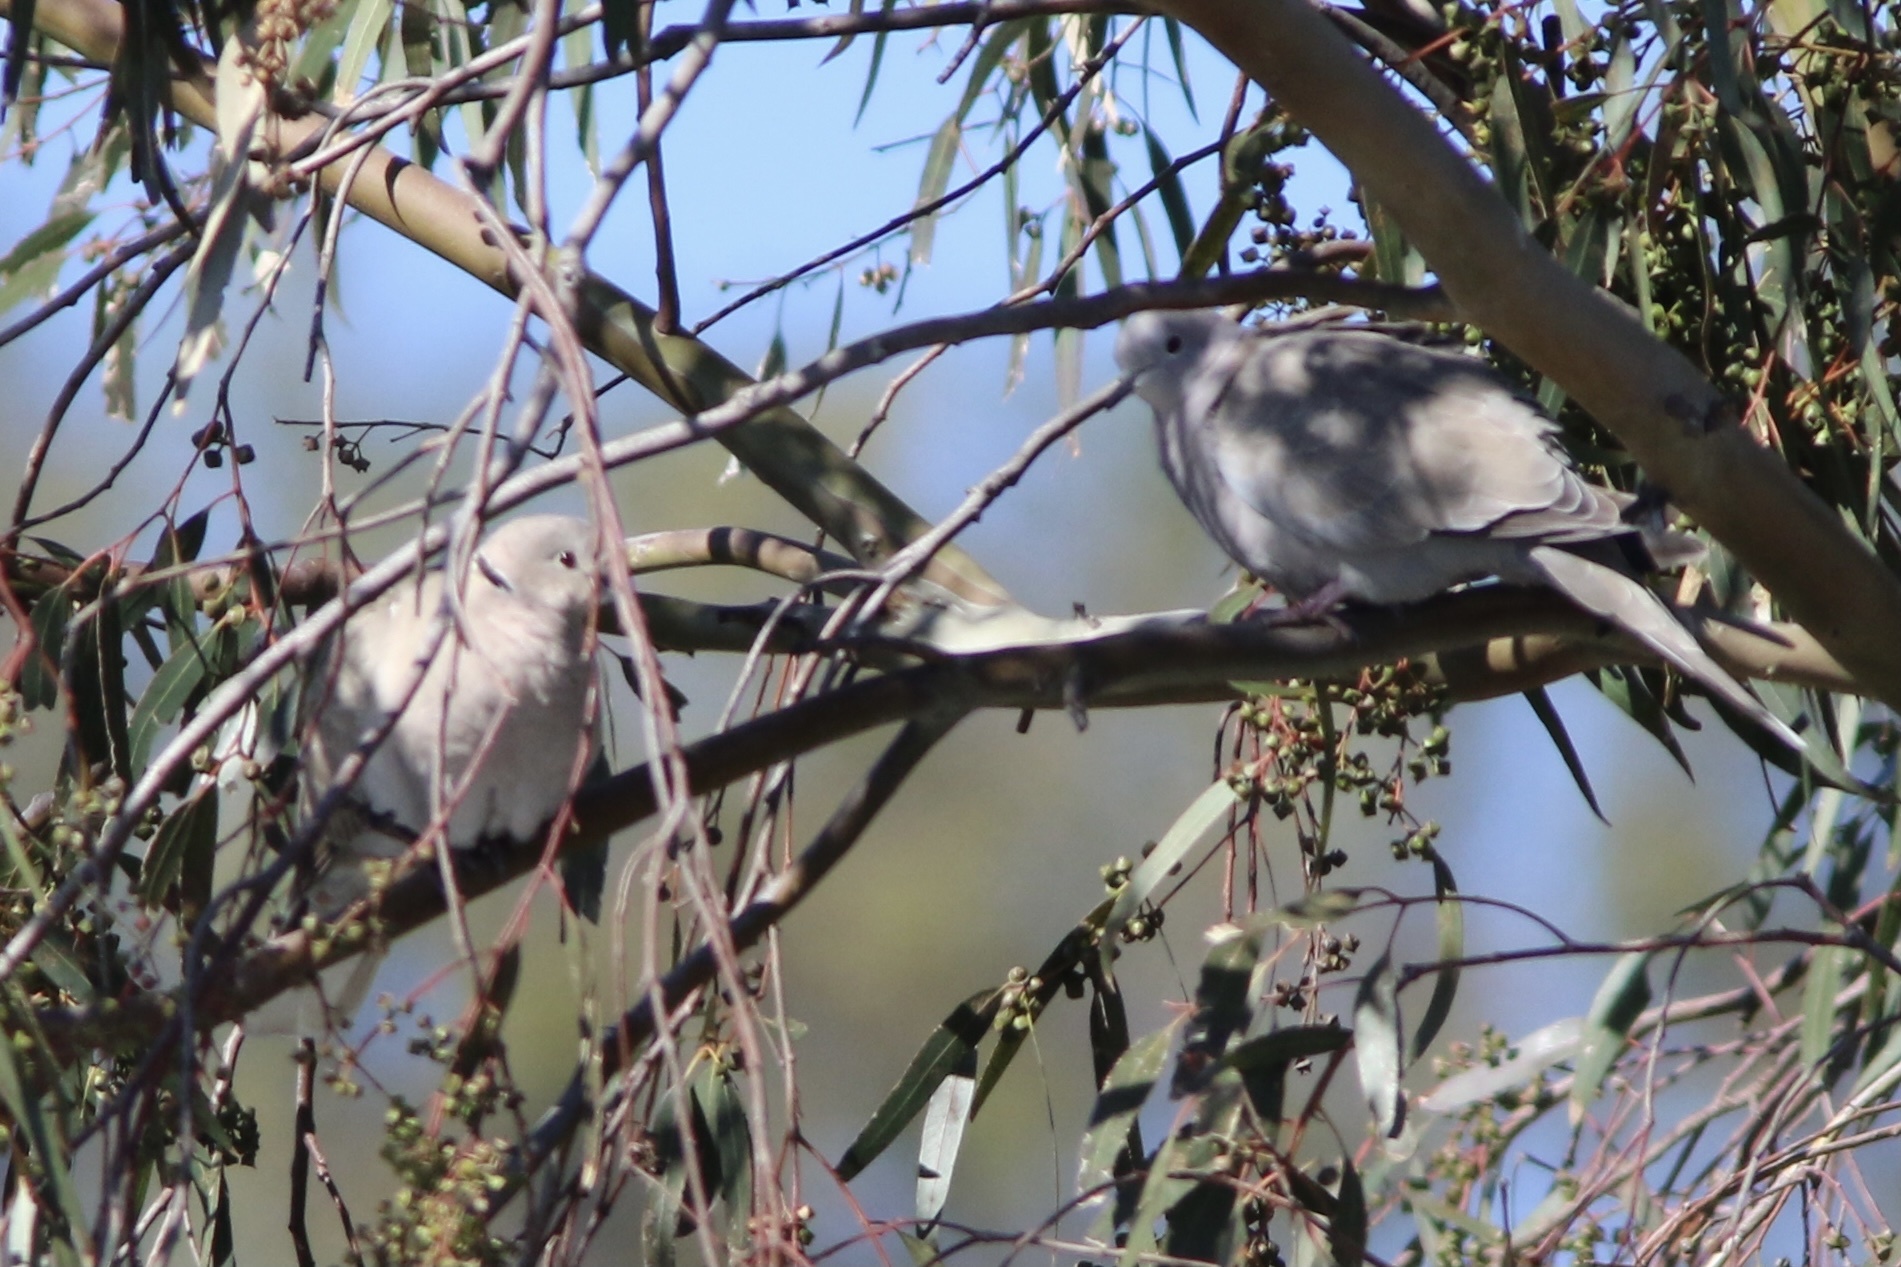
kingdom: Animalia
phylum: Chordata
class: Aves
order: Columbiformes
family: Columbidae
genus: Streptopelia
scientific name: Streptopelia decaocto
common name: Eurasian collared dove
